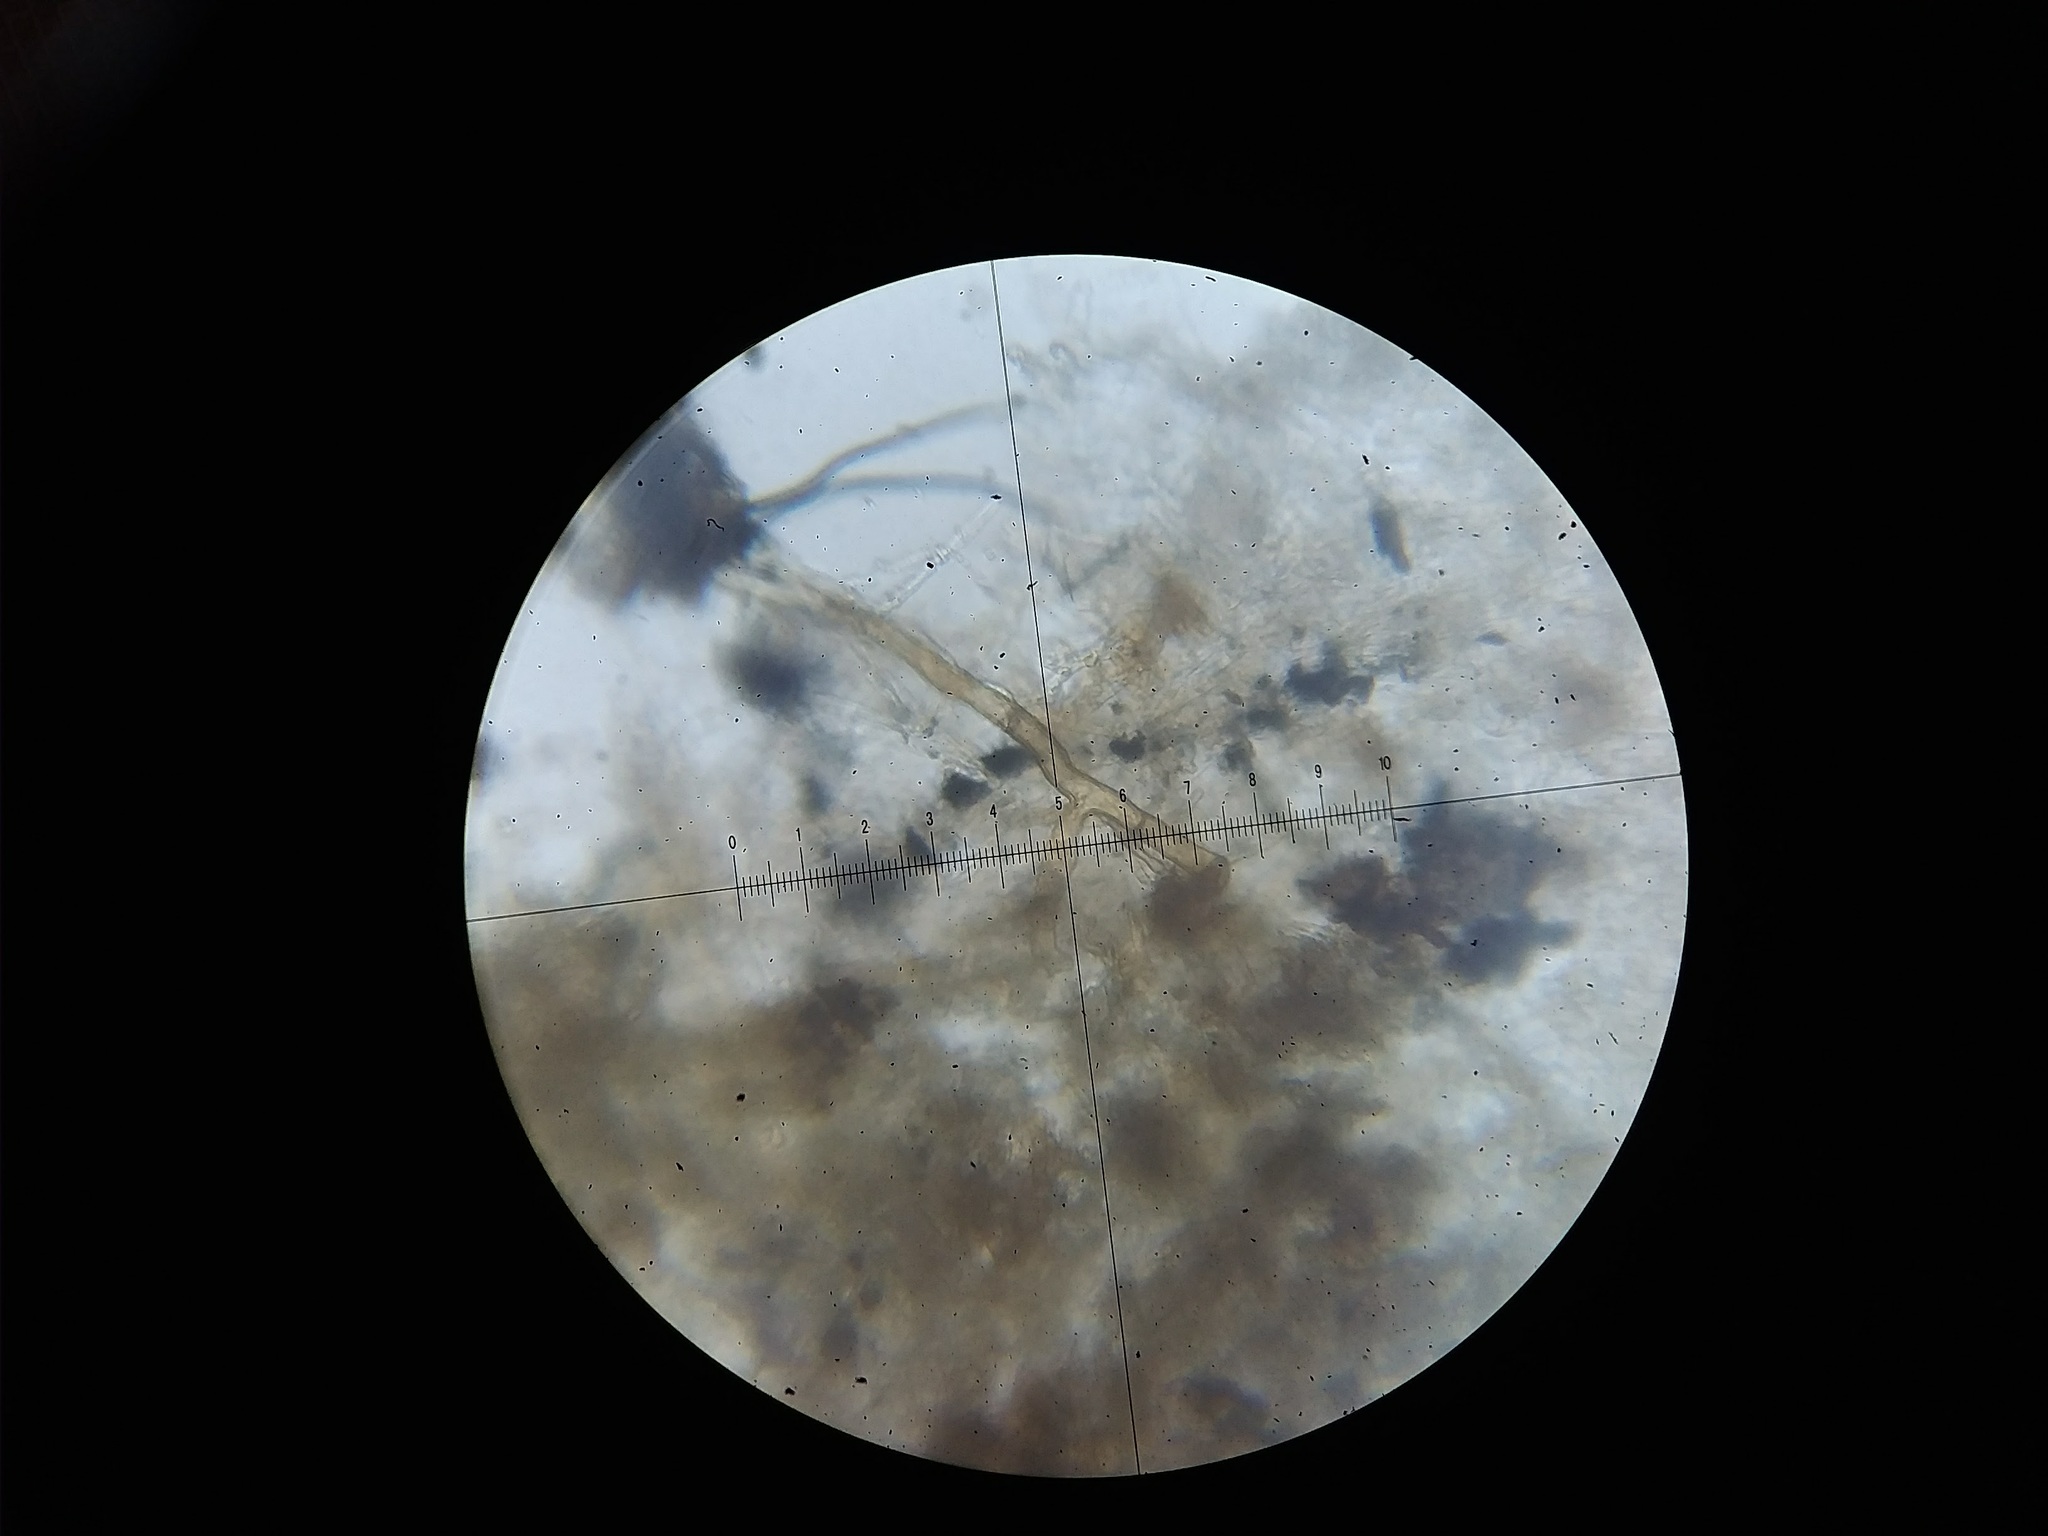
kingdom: Fungi
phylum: Basidiomycota
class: Agaricomycetes
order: Russulales
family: Xenasmataceae
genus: Xenasmatella
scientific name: Xenasmatella christiansenii
